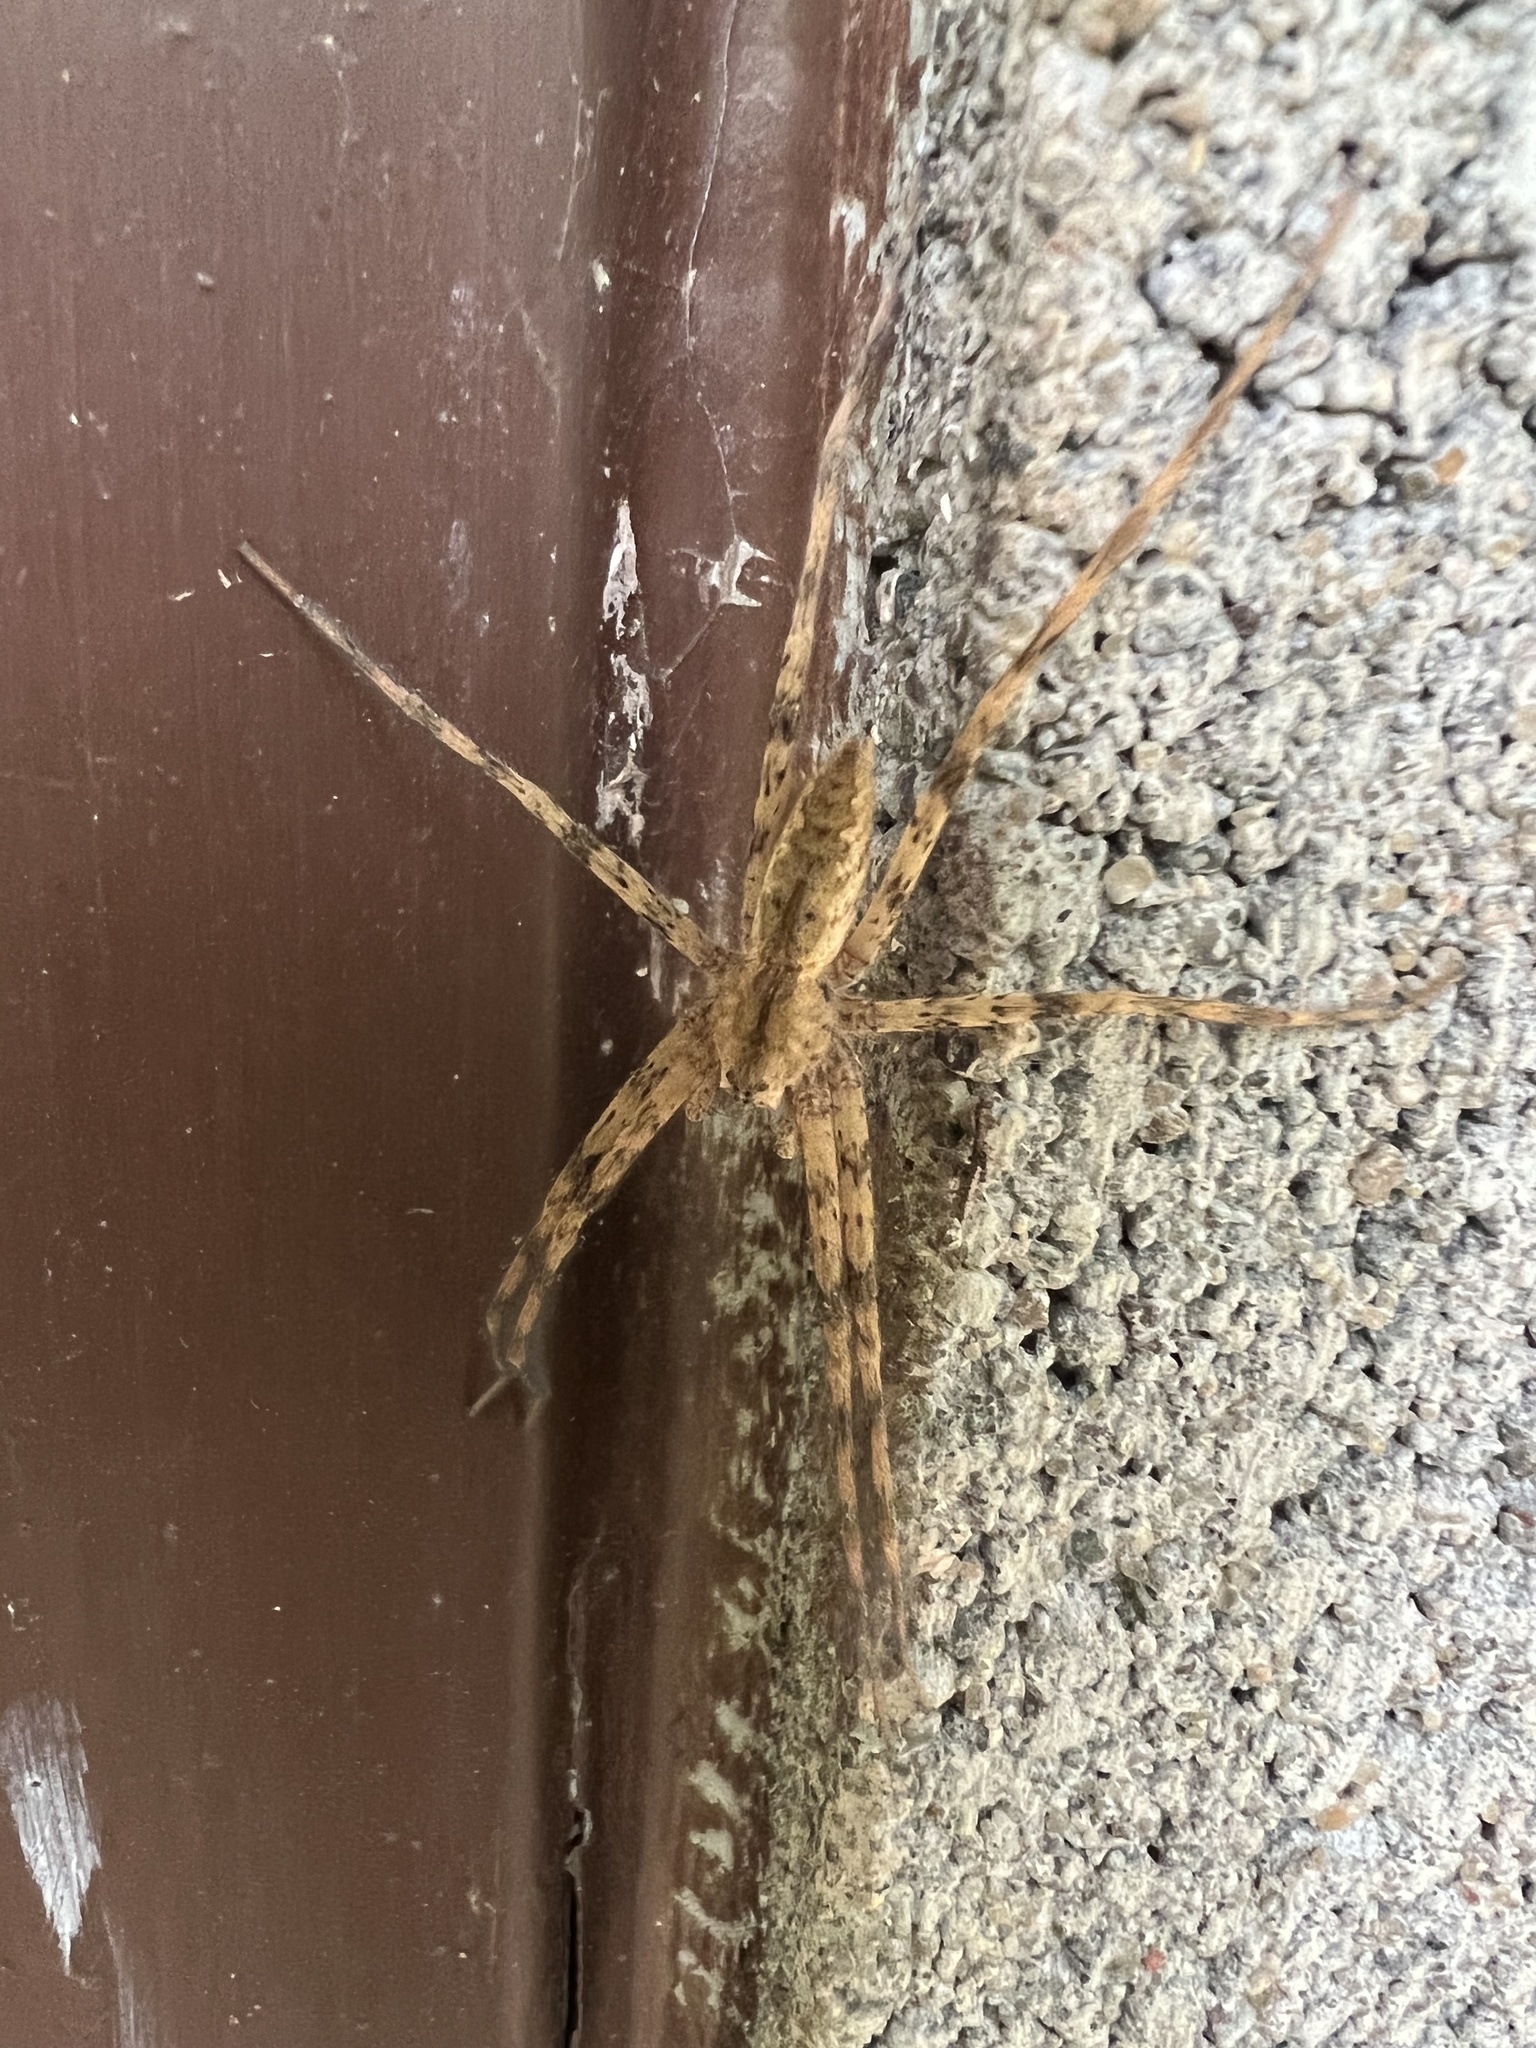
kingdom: Animalia
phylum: Arthropoda
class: Arachnida
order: Araneae
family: Pisauridae
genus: Pisaurina
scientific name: Pisaurina mira
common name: American nursery web spider
